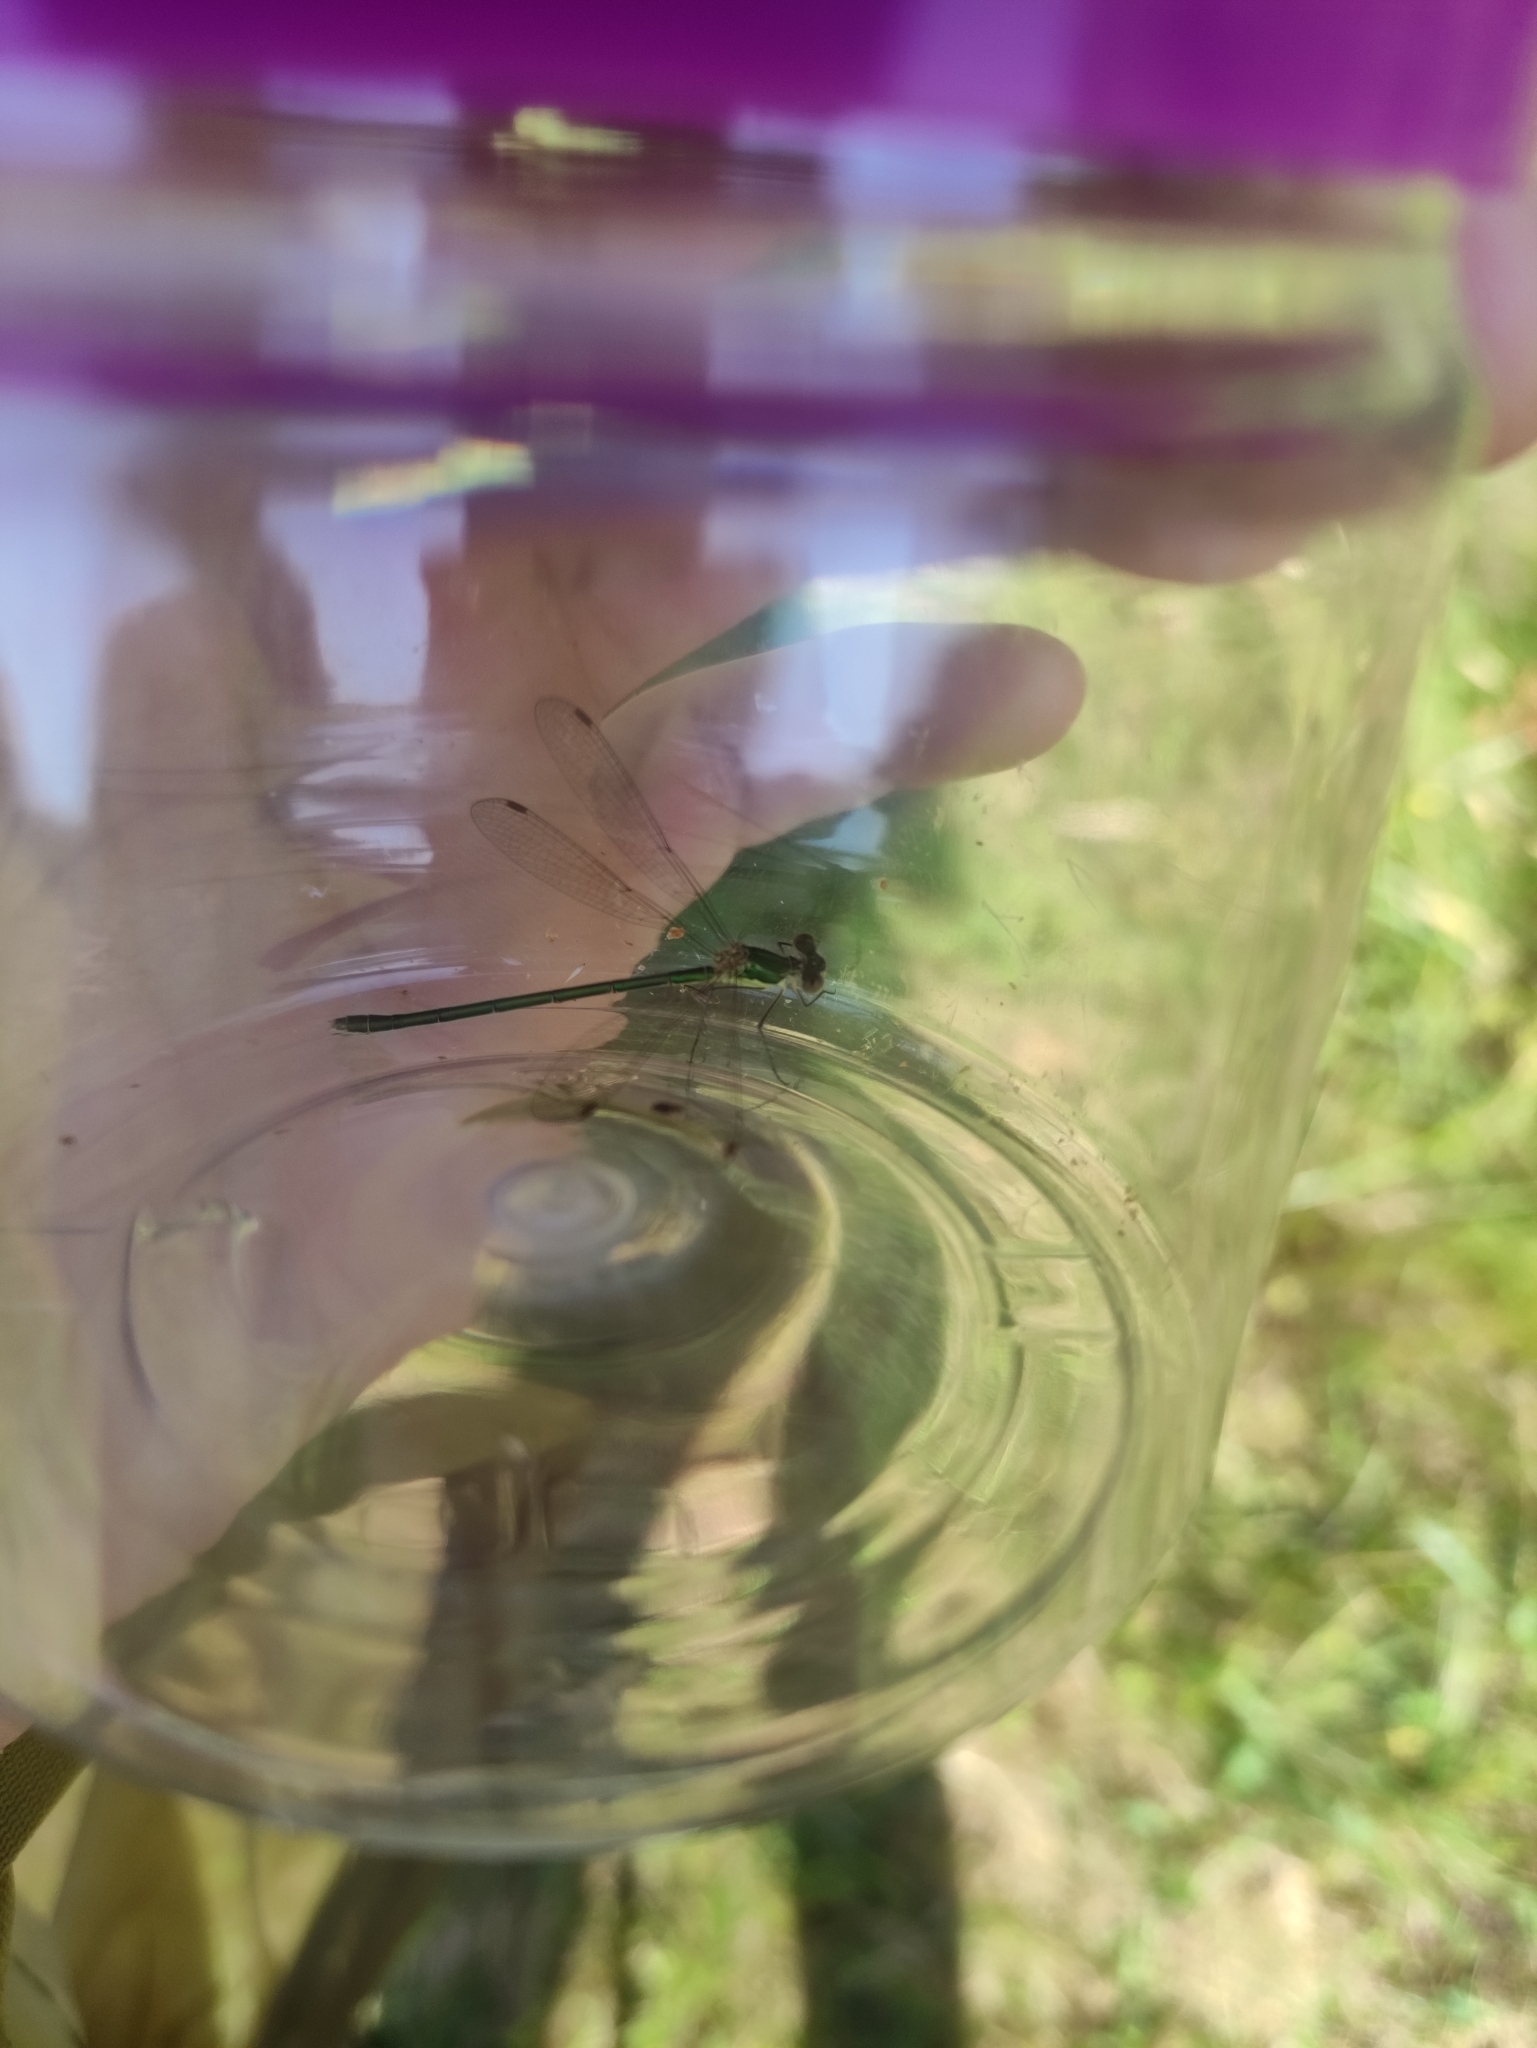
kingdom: Animalia
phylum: Arthropoda
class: Insecta
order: Odonata
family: Lestidae
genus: Lestes
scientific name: Lestes virens
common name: Small emerald spreadwing
